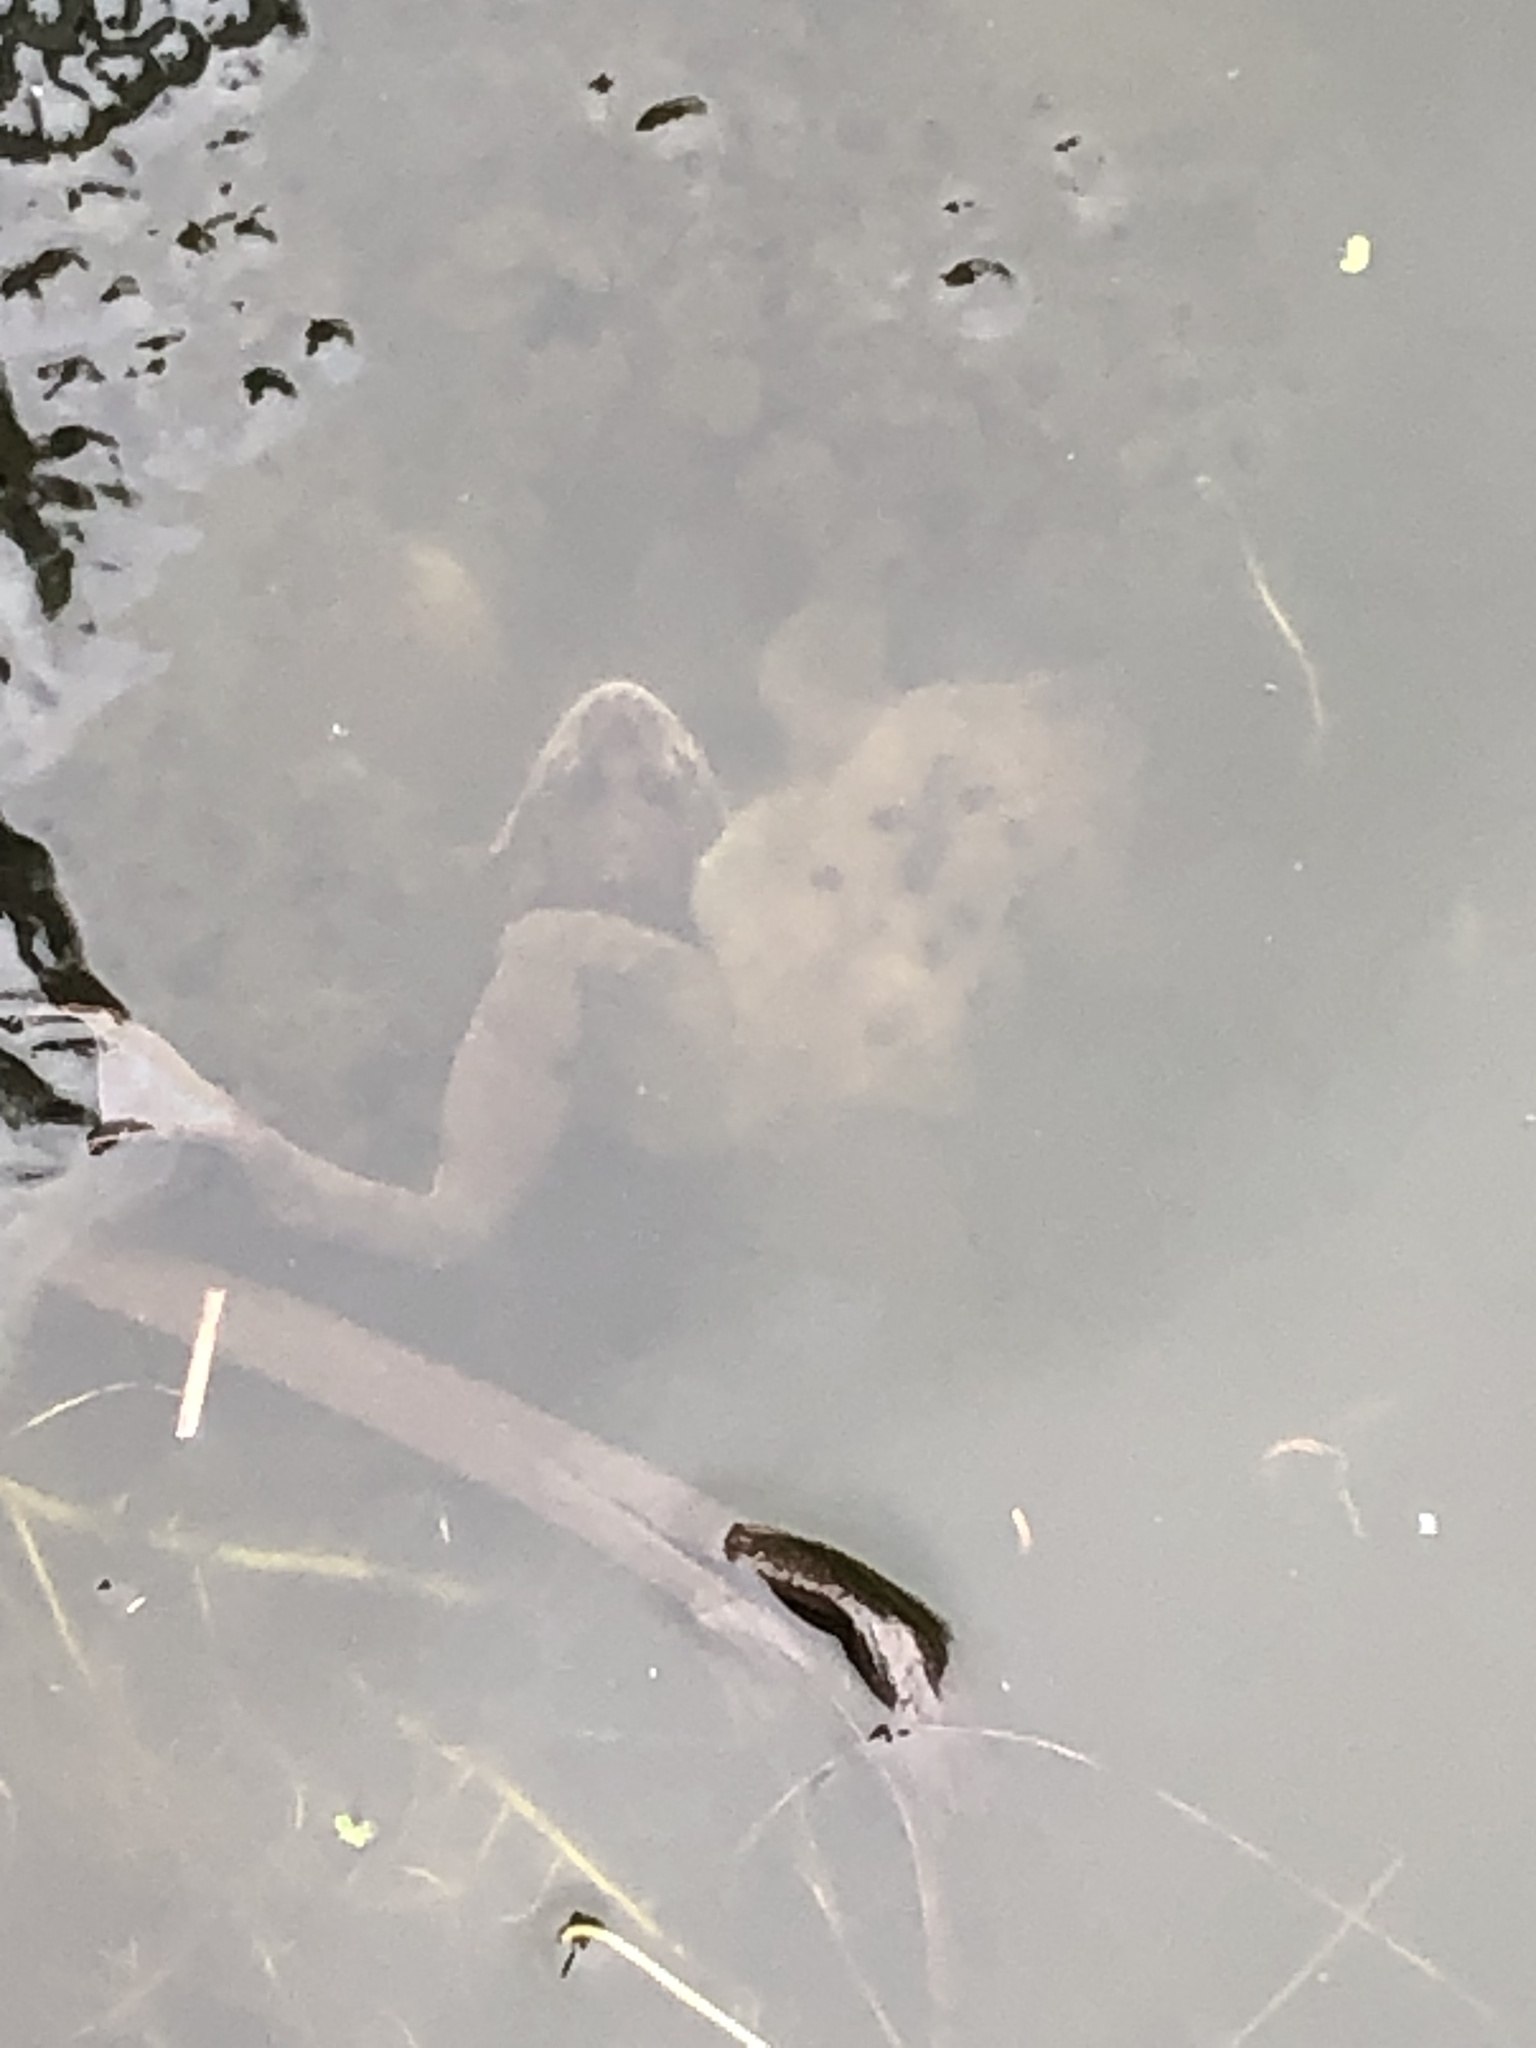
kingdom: Animalia
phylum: Chordata
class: Amphibia
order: Anura
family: Ranidae
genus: Rana
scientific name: Rana temporaria
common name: Common frog
